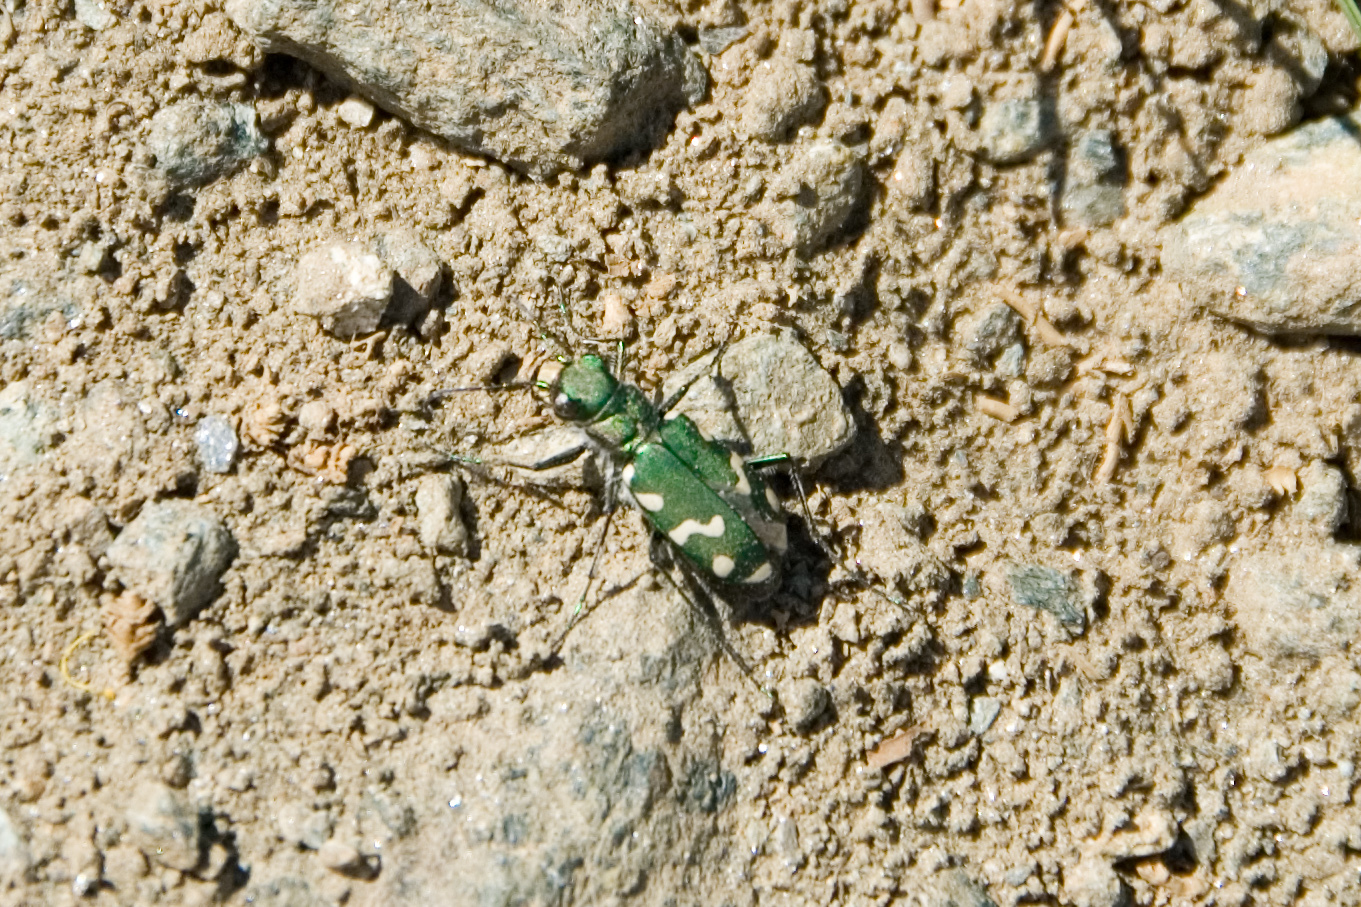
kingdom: Animalia
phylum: Arthropoda
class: Insecta
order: Coleoptera
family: Carabidae
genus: Cicindela
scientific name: Cicindela gallica
